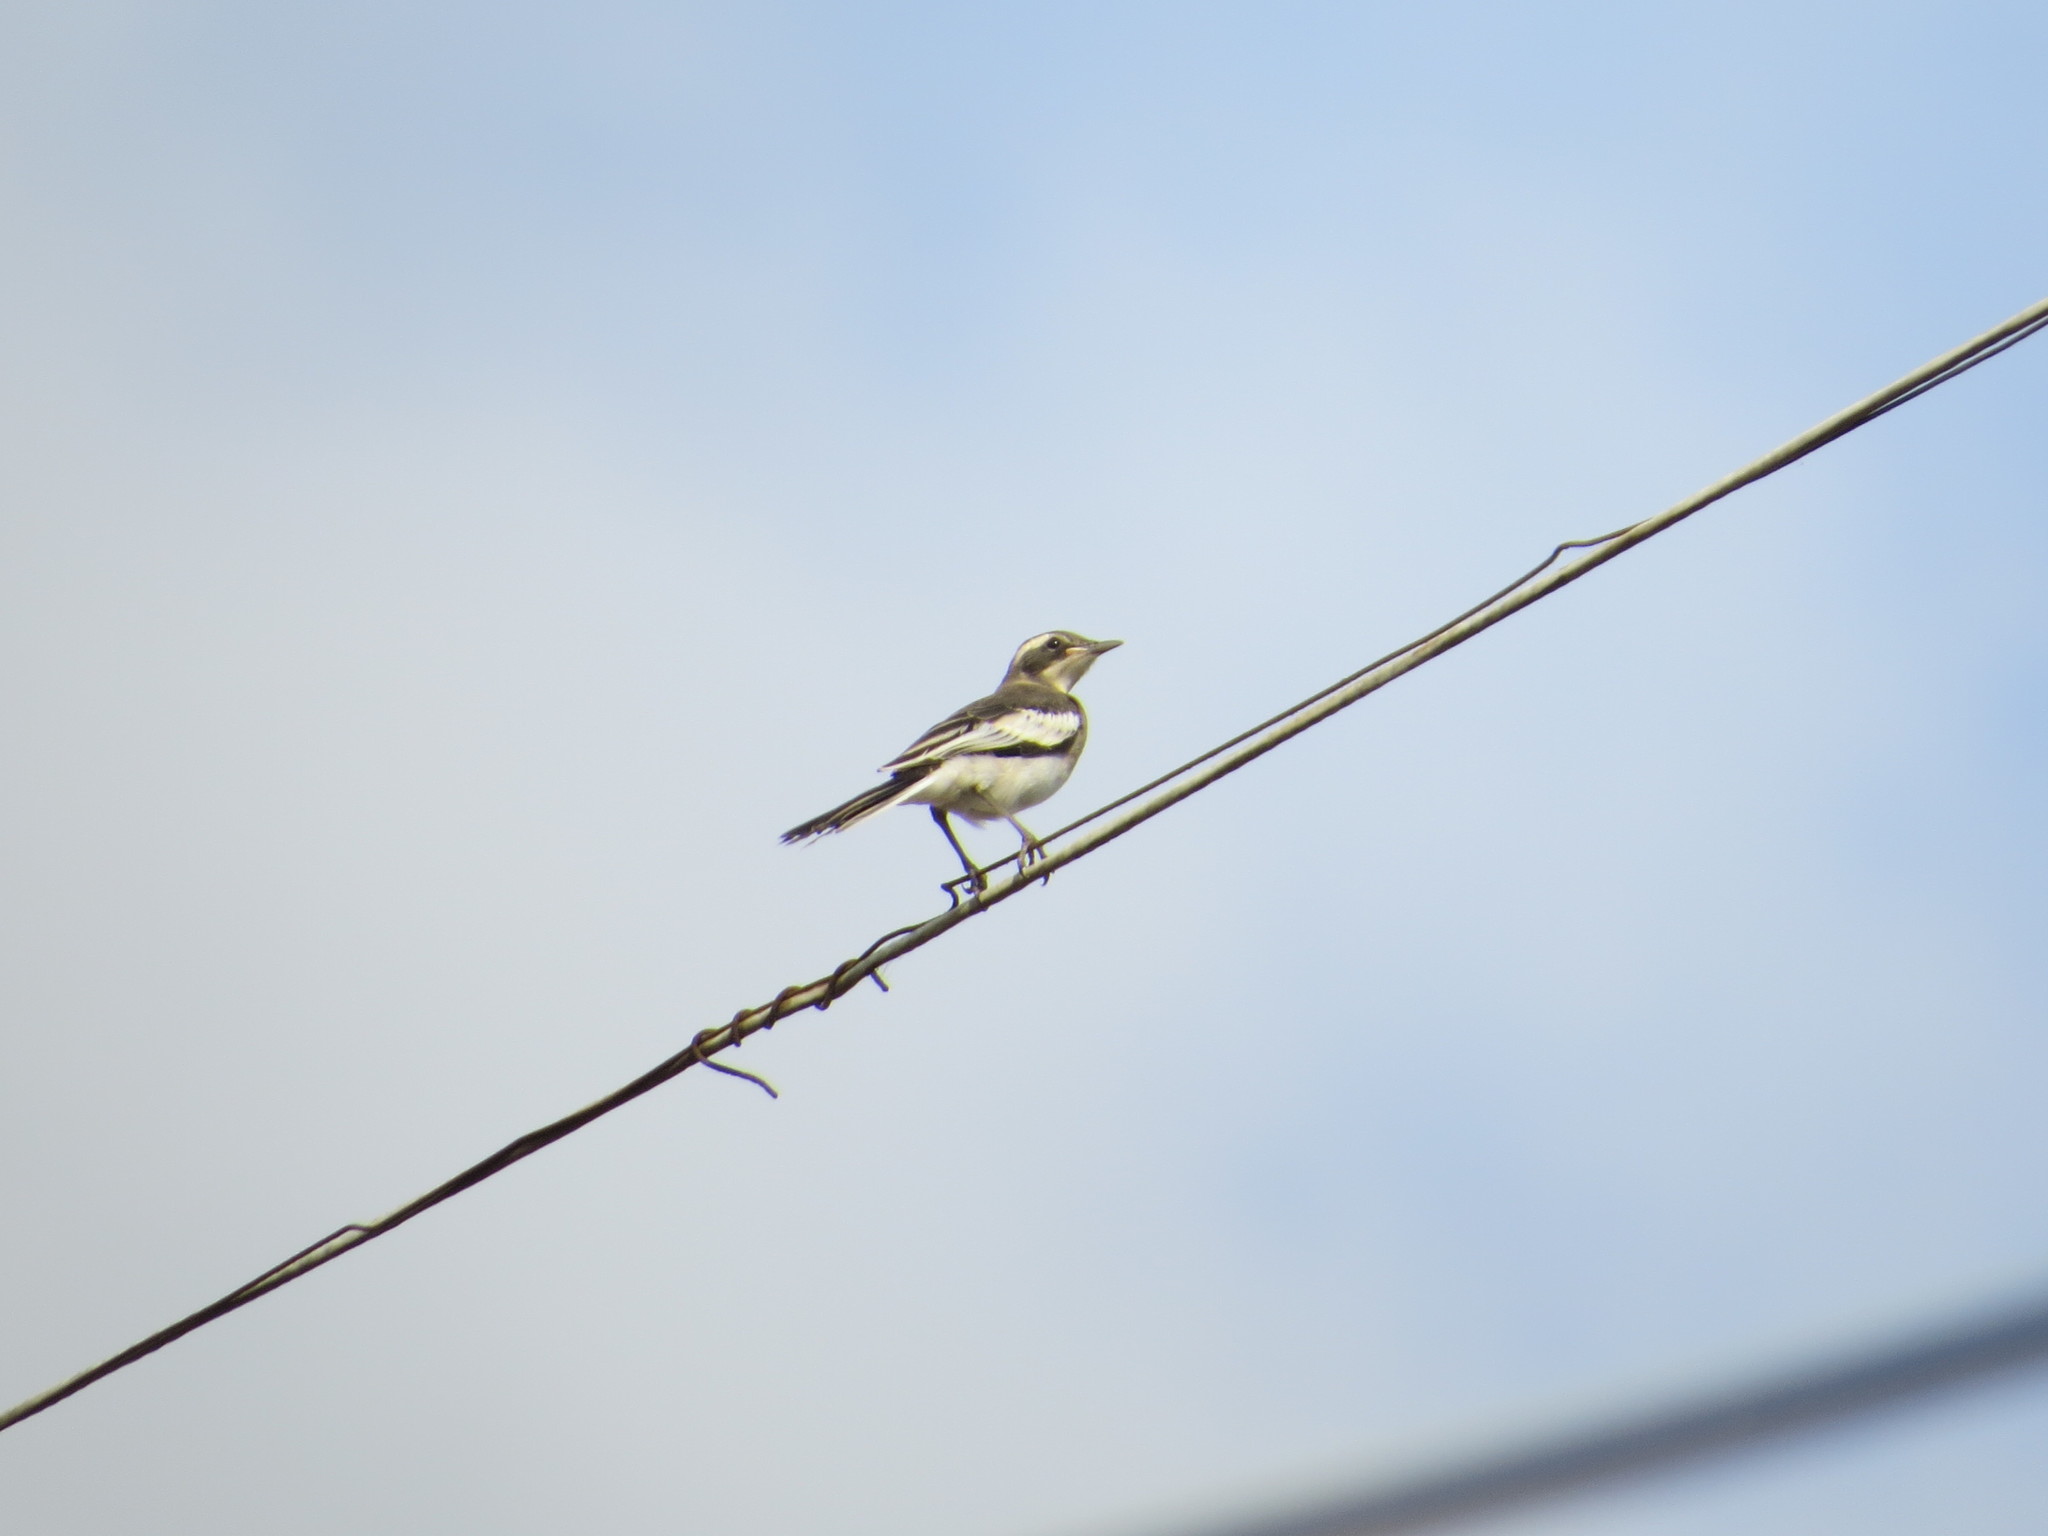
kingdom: Animalia
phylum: Chordata
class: Aves
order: Passeriformes
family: Motacillidae
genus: Motacilla
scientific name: Motacilla aguimp
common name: African pied wagtail
